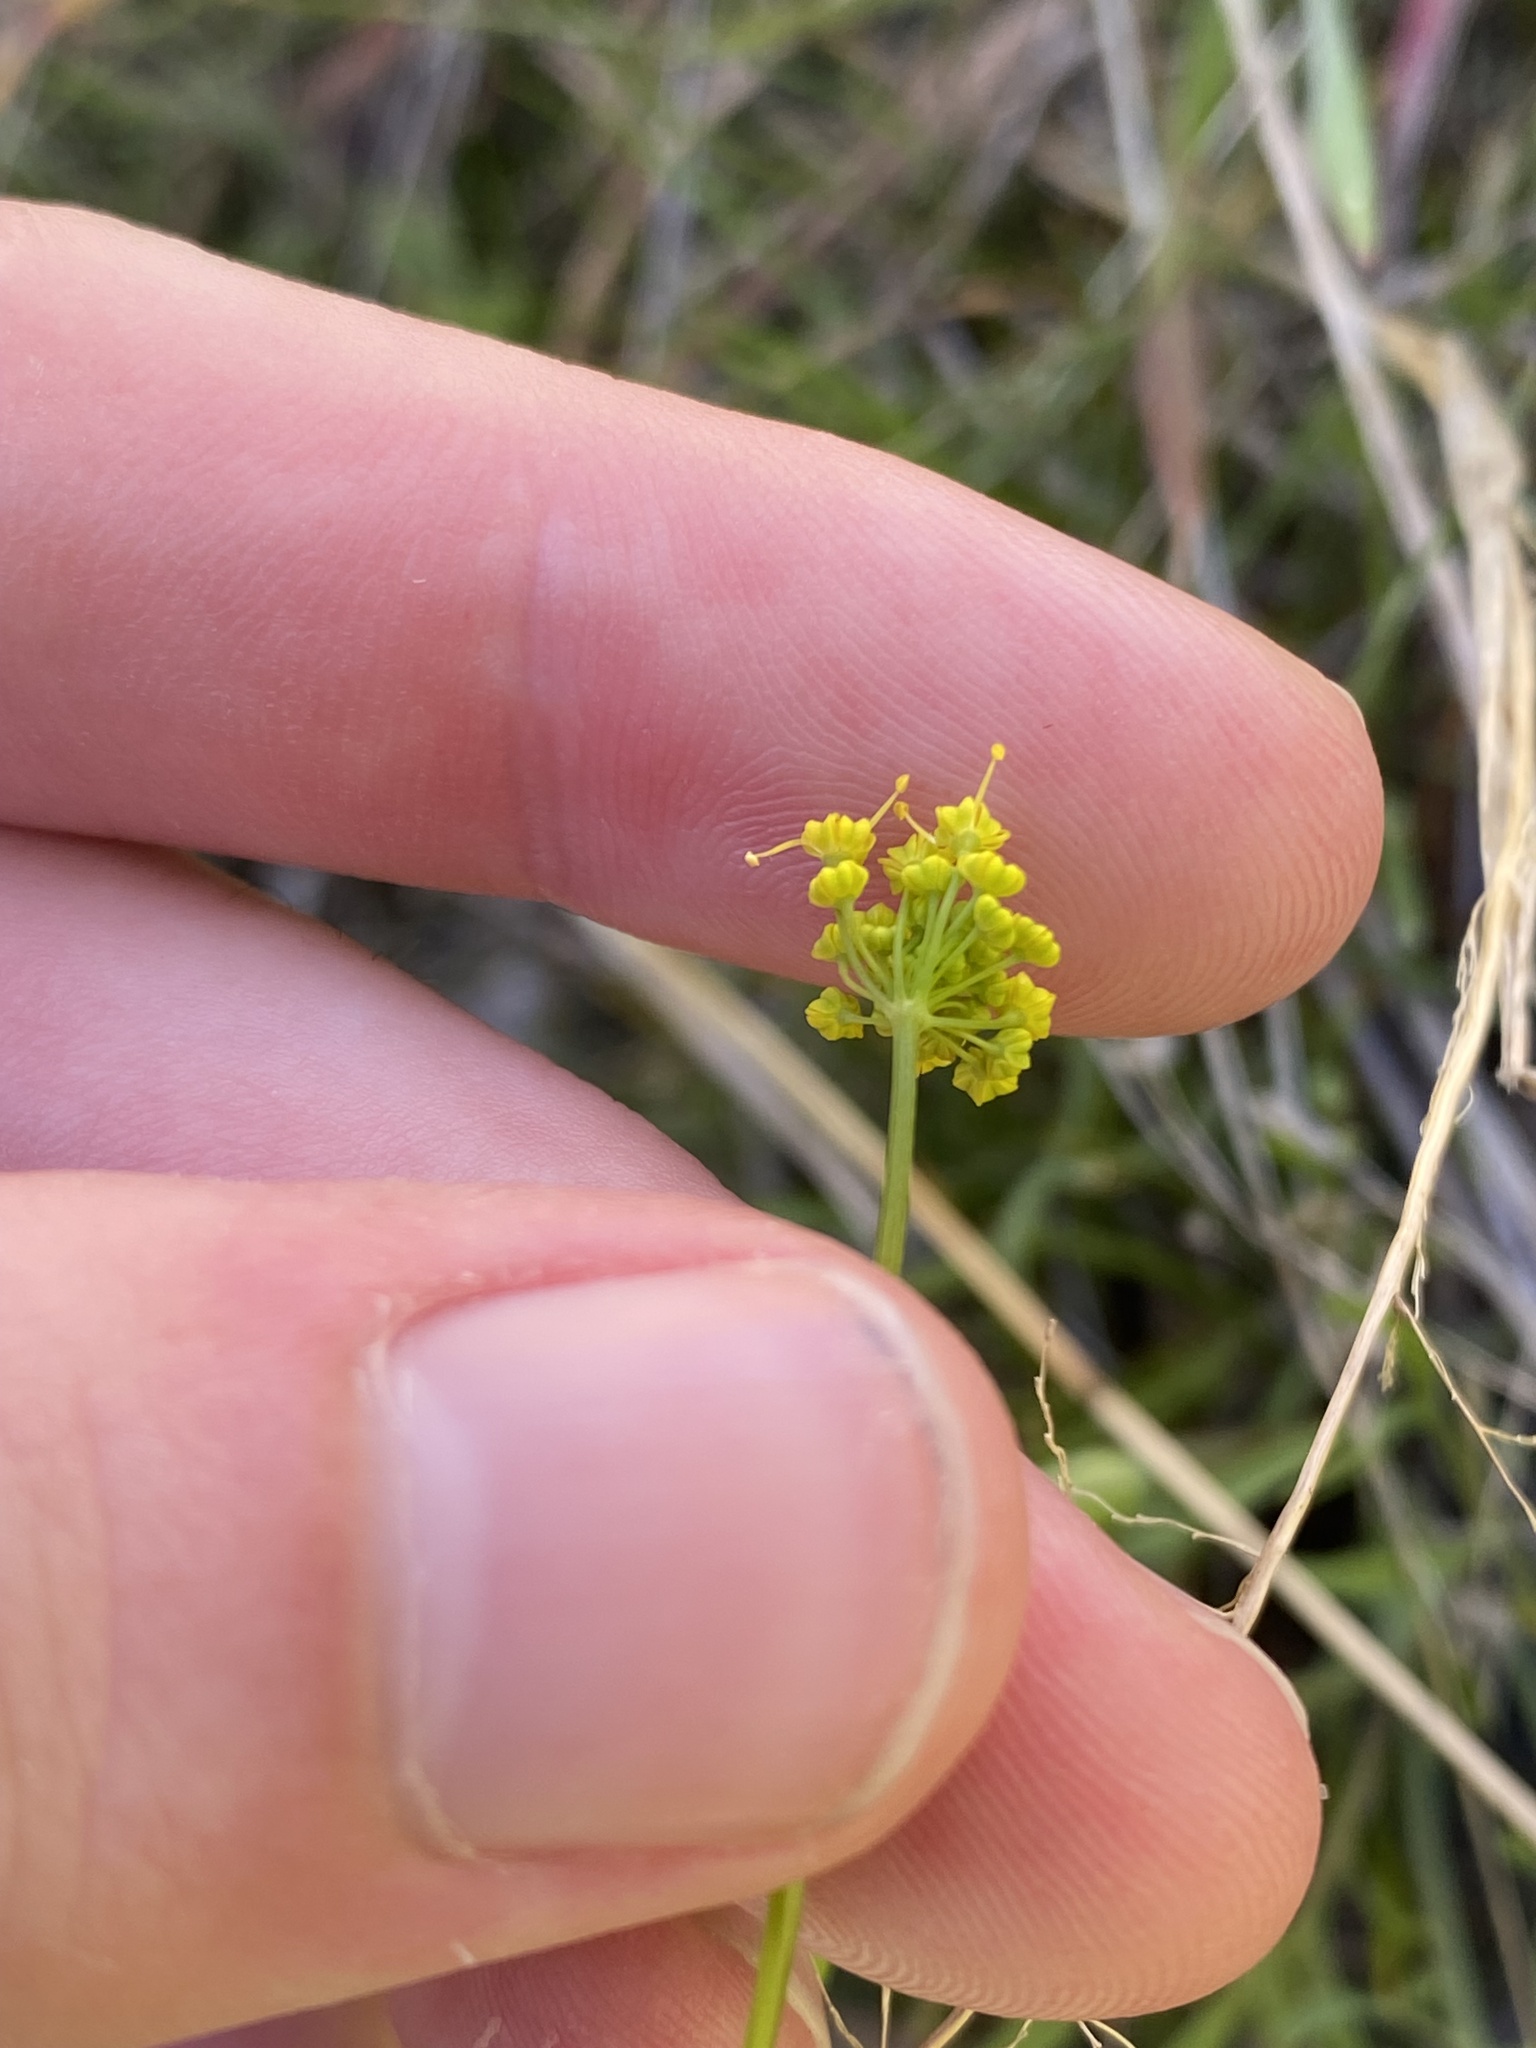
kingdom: Plantae
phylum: Tracheophyta
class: Magnoliopsida
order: Apiales
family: Apiaceae
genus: Lomatium
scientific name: Lomatium ambiguum
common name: Lacy lomatium
